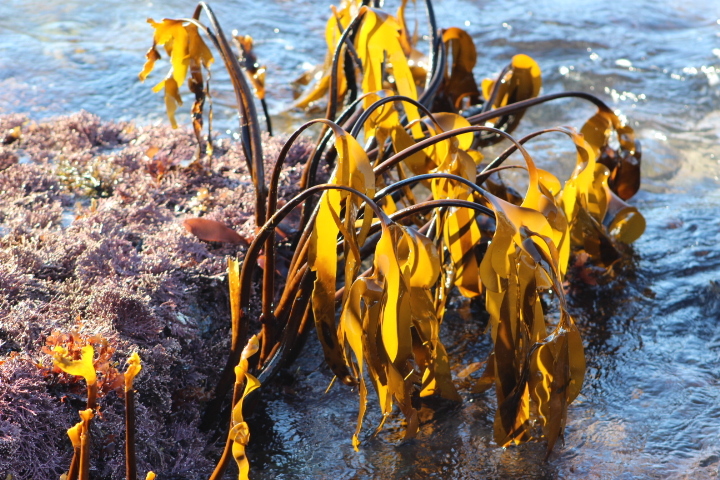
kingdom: Chromista
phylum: Ochrophyta
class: Phaeophyceae
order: Laminariales
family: Laminariaceae
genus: Laminaria
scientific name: Laminaria setchellii
